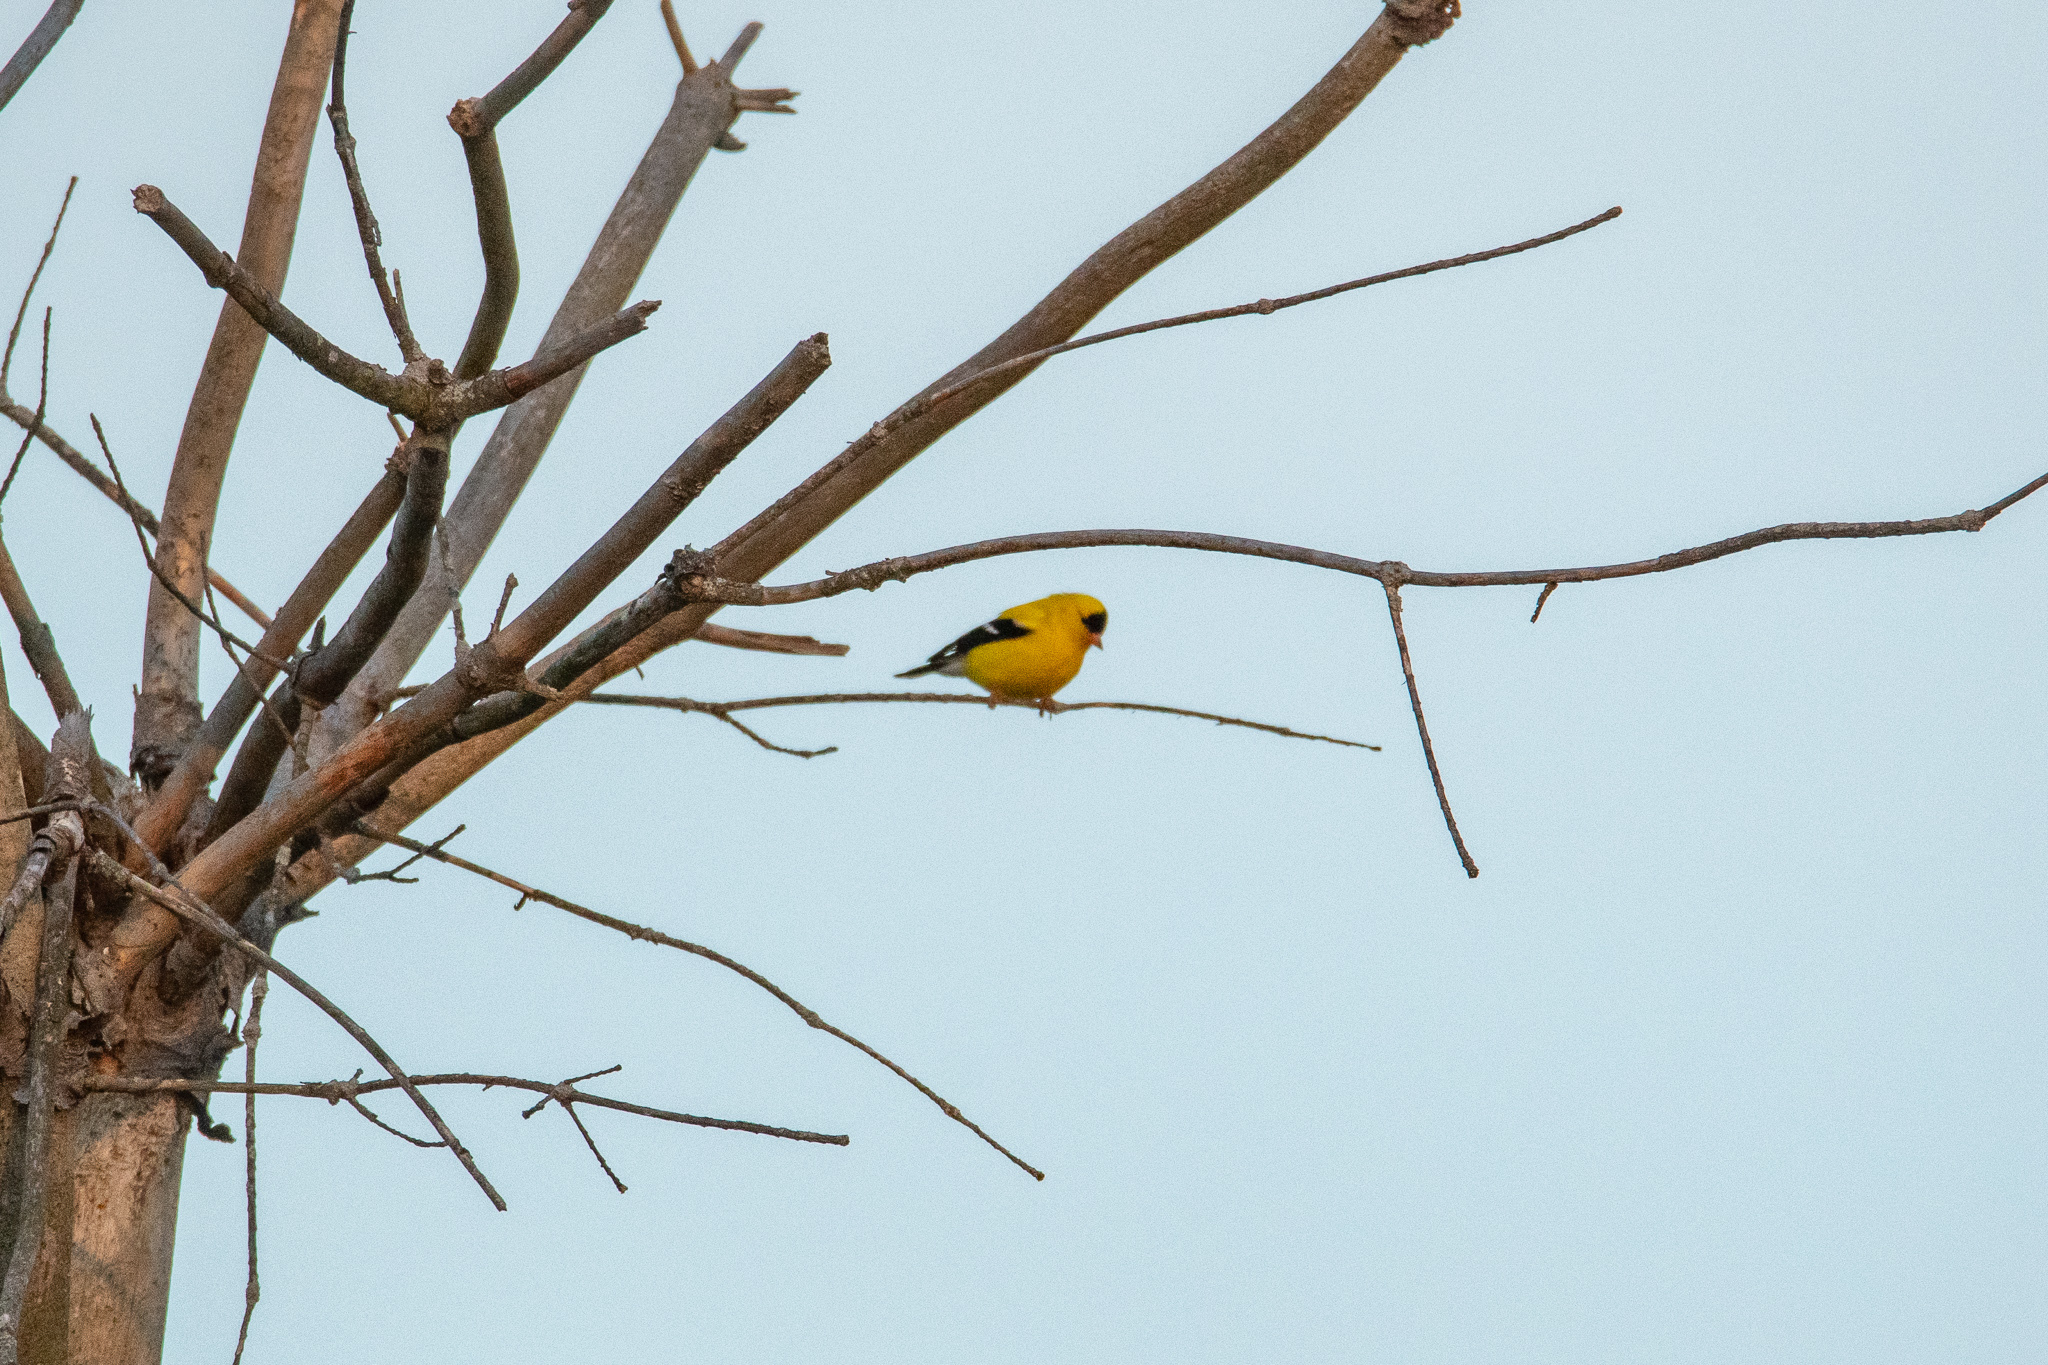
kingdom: Animalia
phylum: Chordata
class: Aves
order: Passeriformes
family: Fringillidae
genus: Spinus
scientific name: Spinus tristis
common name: American goldfinch
